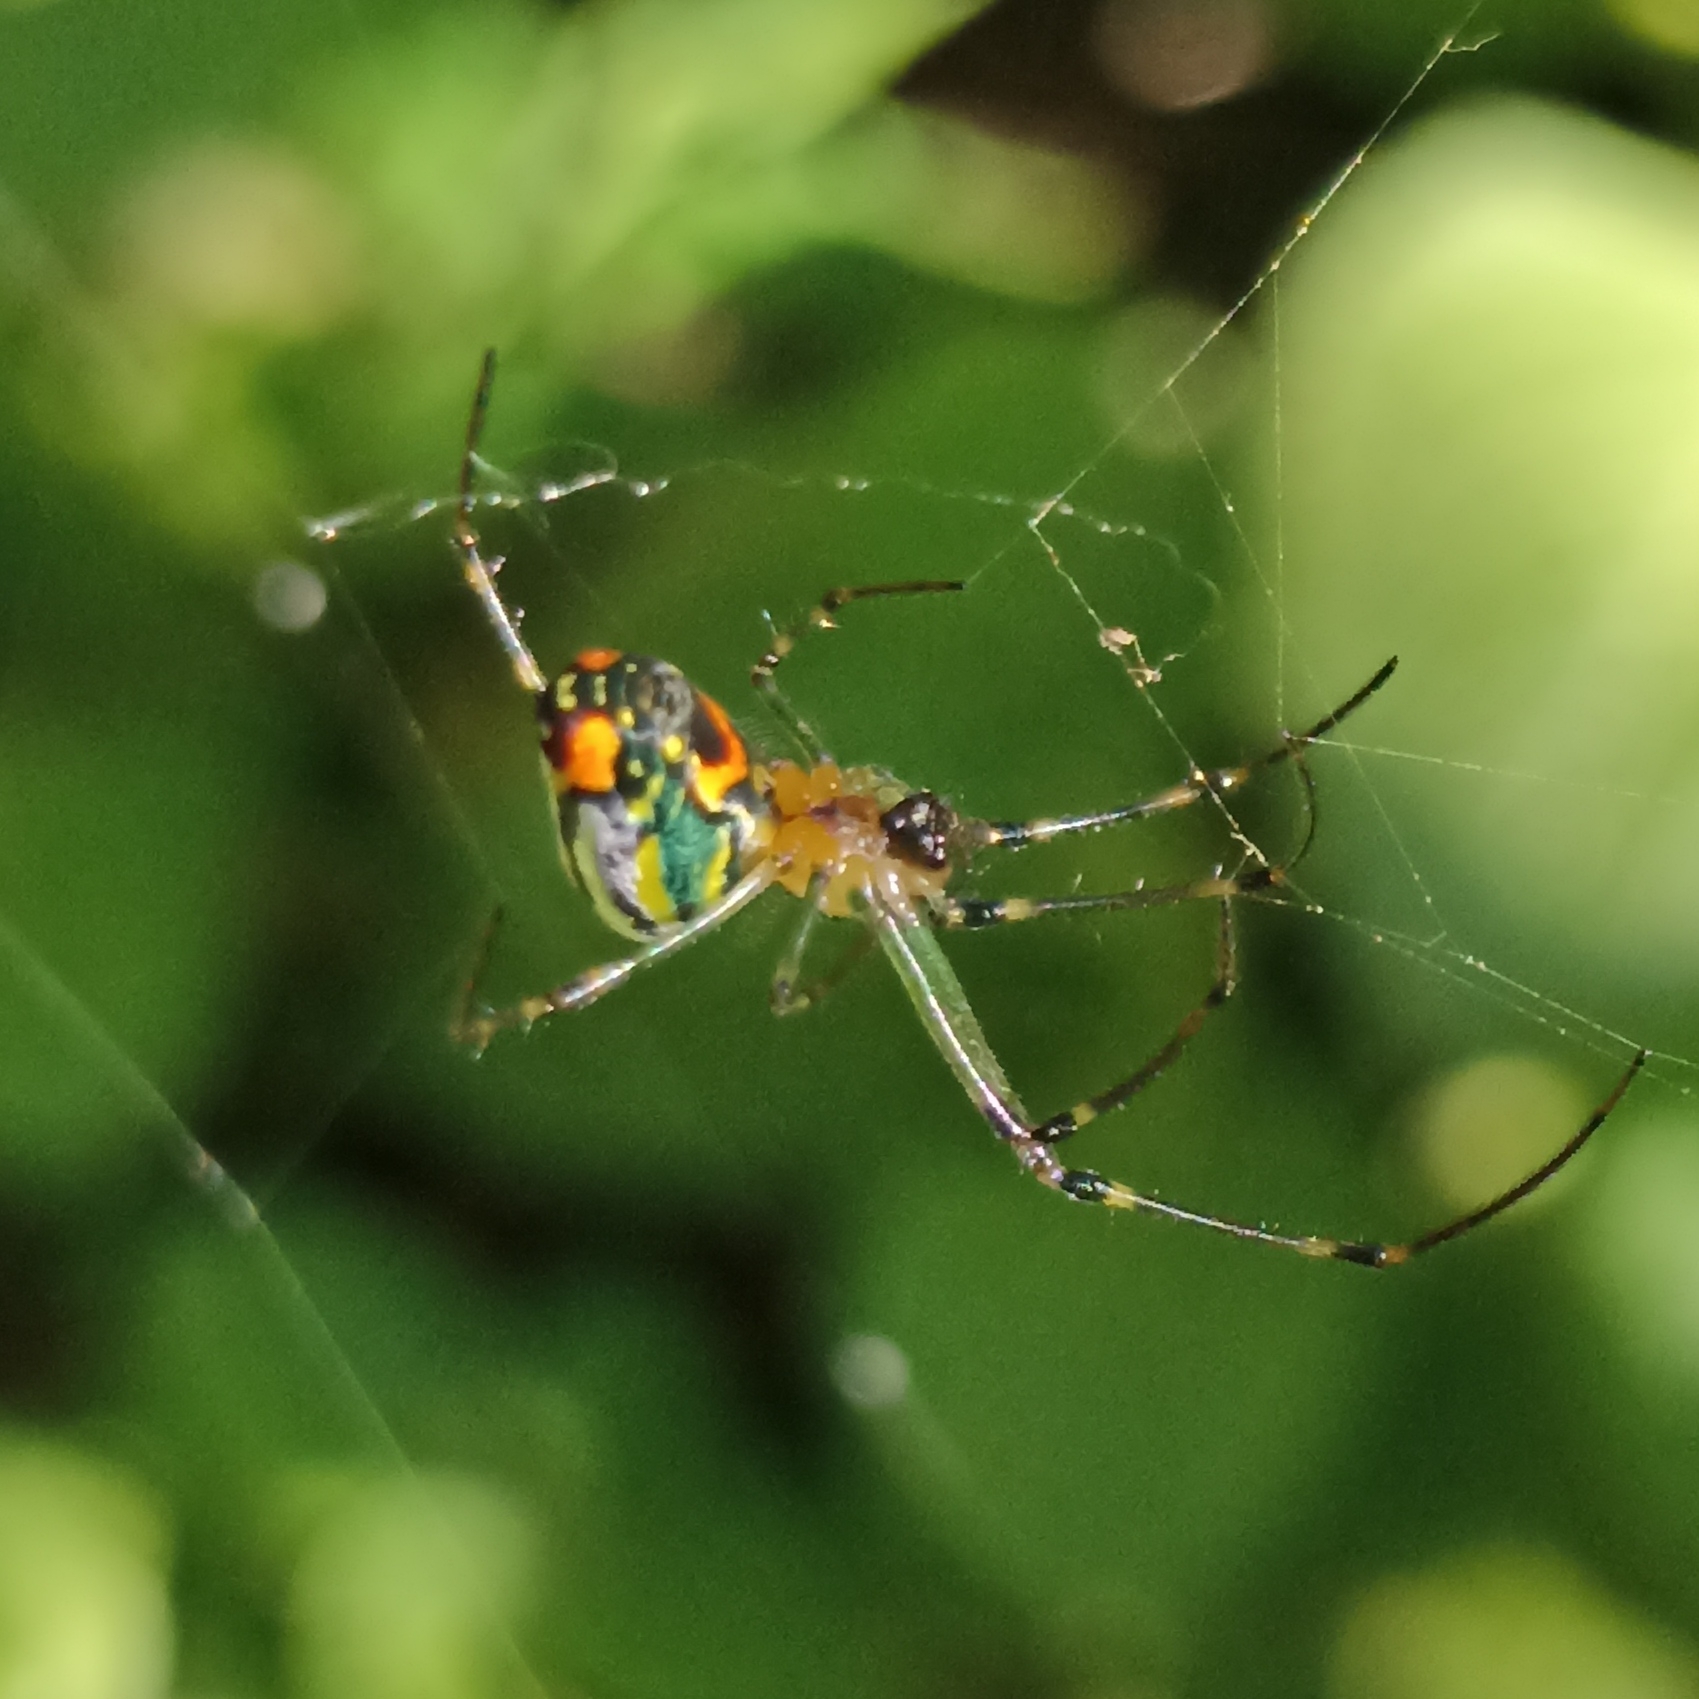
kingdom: Animalia
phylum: Arthropoda
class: Arachnida
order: Araneae
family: Tetragnathidae
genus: Leucauge
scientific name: Leucauge mariana
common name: Longjawed orb weavers
